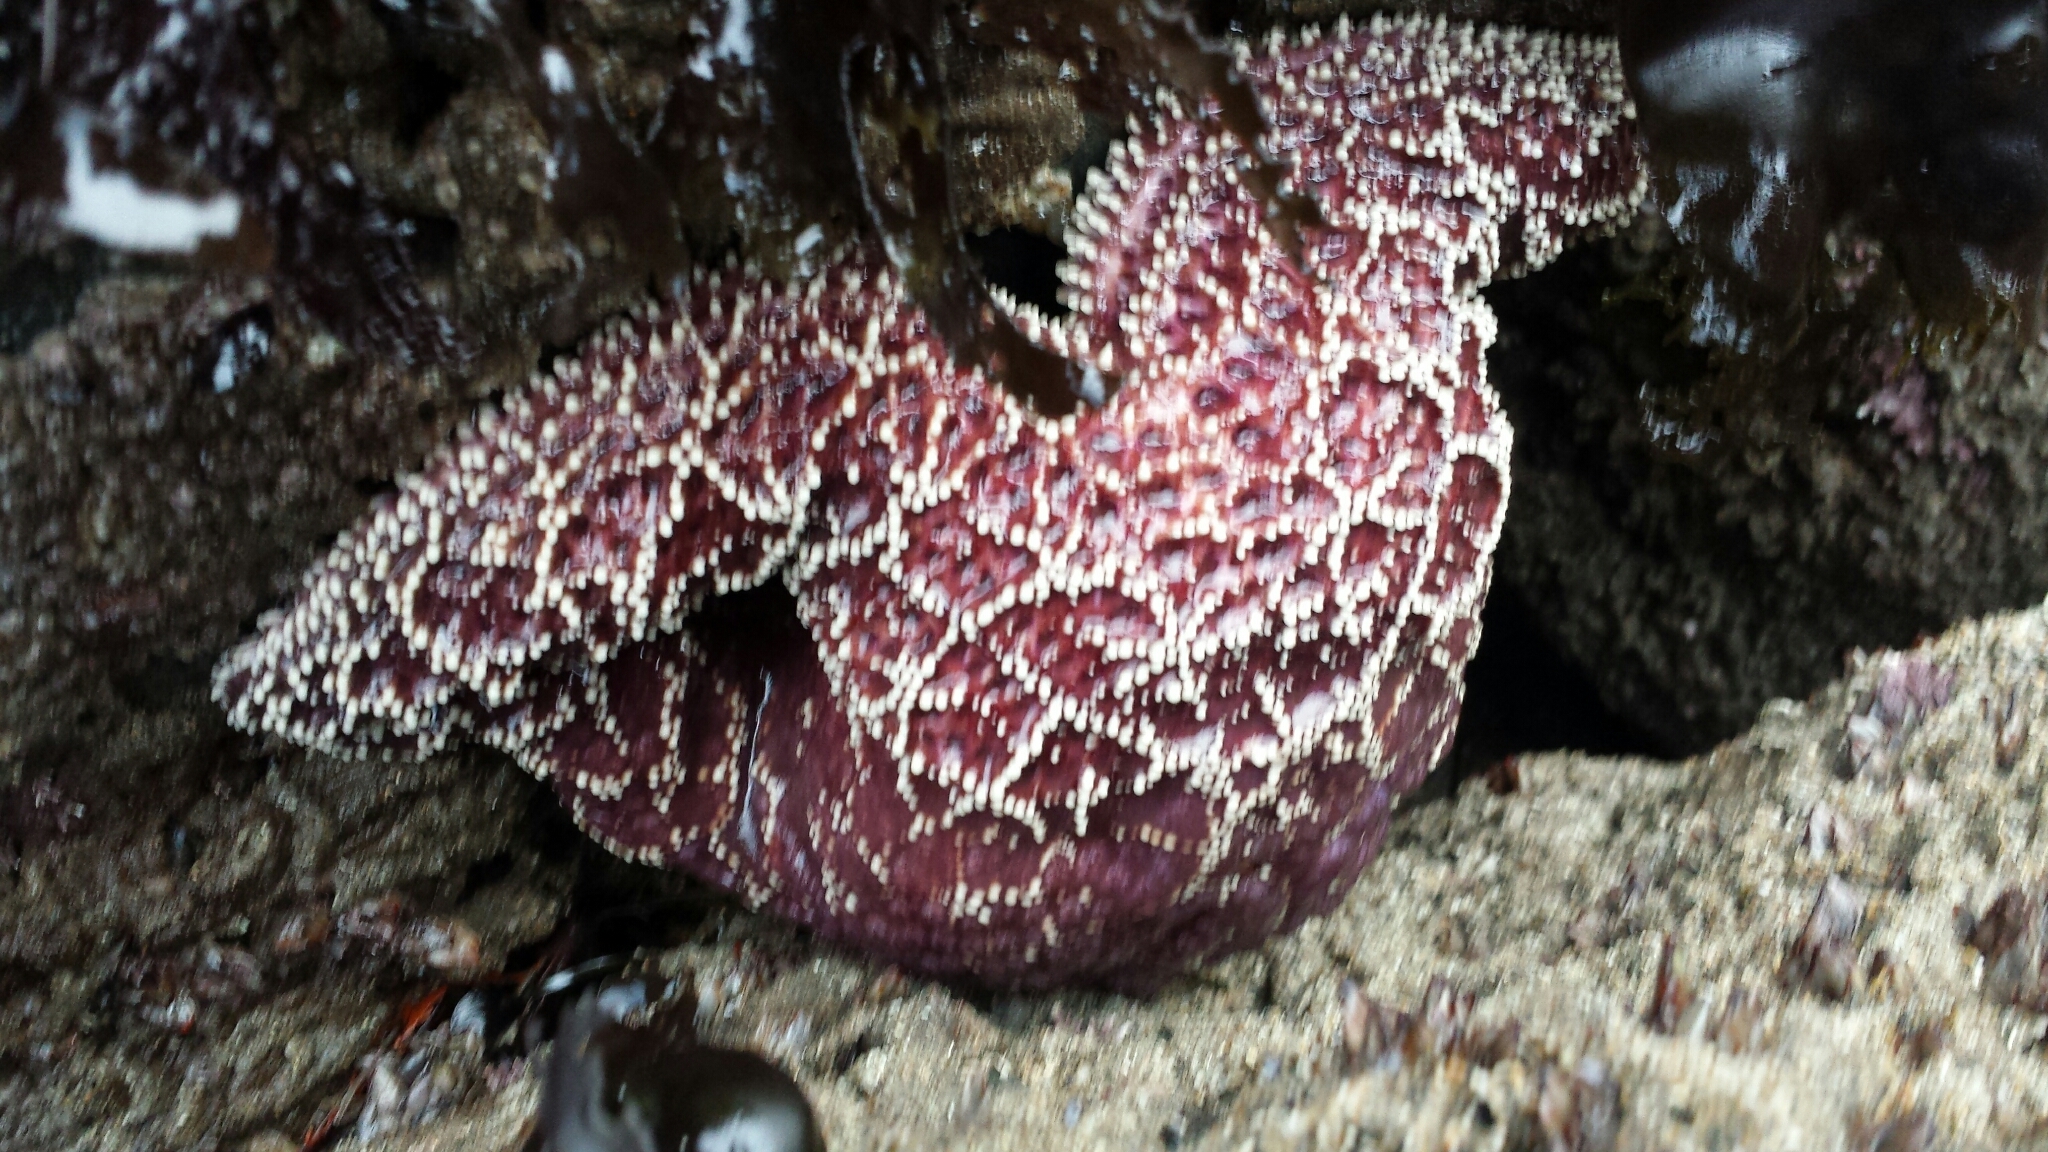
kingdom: Animalia
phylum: Echinodermata
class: Asteroidea
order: Forcipulatida
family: Asteriidae
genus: Pisaster
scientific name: Pisaster ochraceus
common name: Ochre stars
